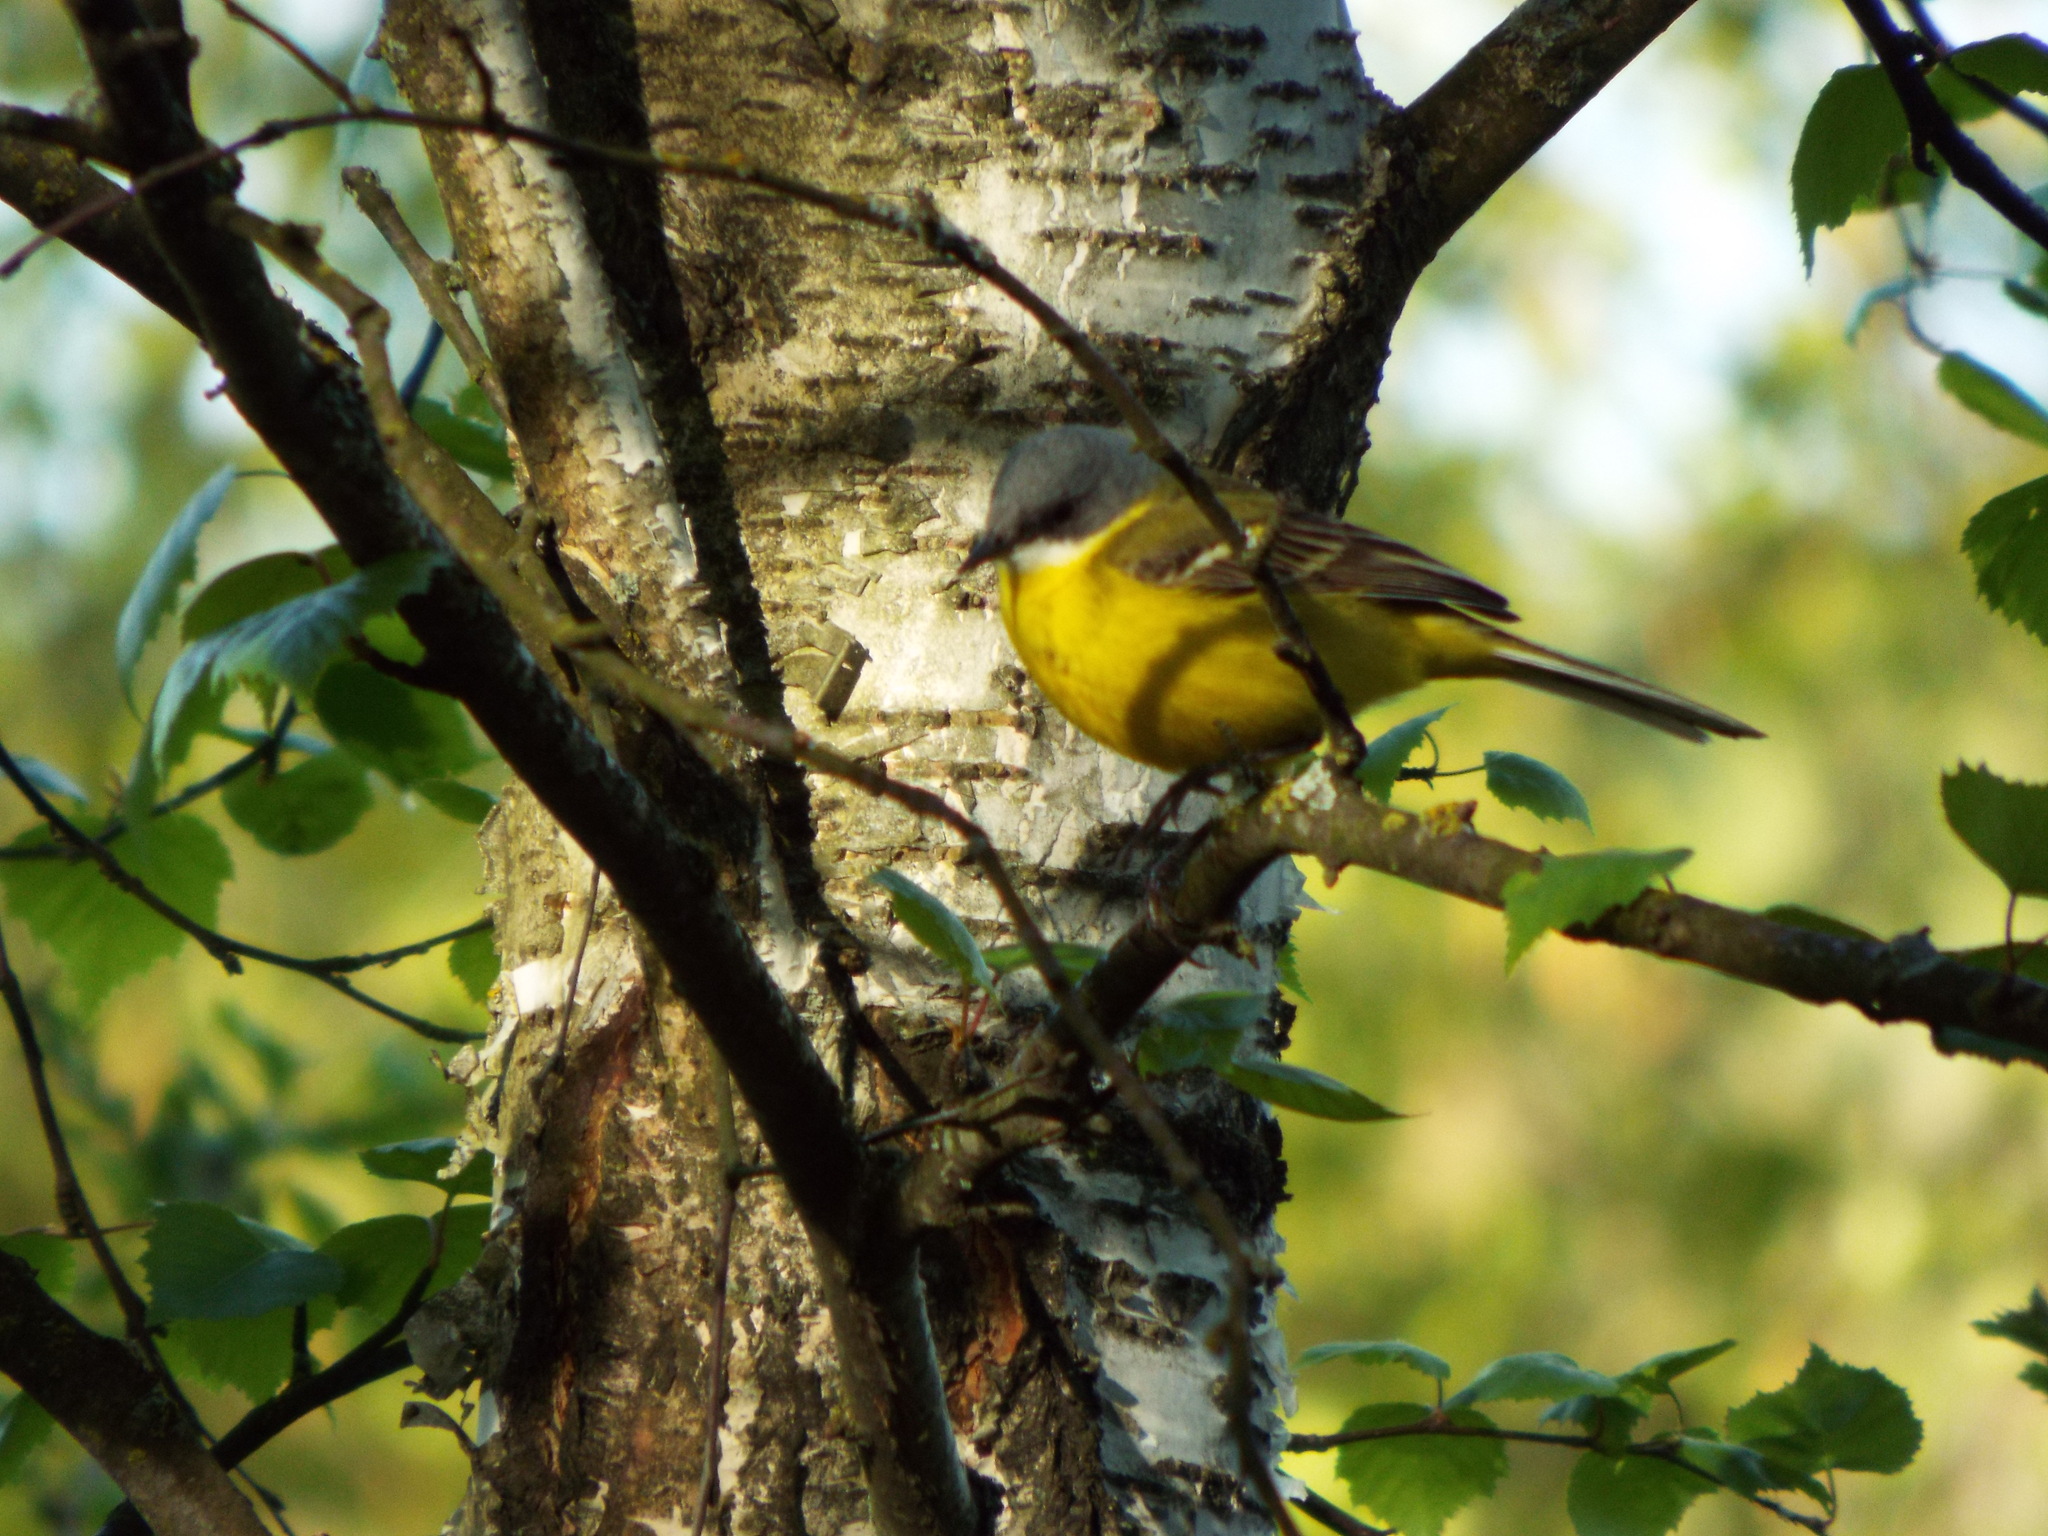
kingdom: Animalia
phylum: Chordata
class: Aves
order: Passeriformes
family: Motacillidae
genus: Motacilla
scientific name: Motacilla flava
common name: Western yellow wagtail
